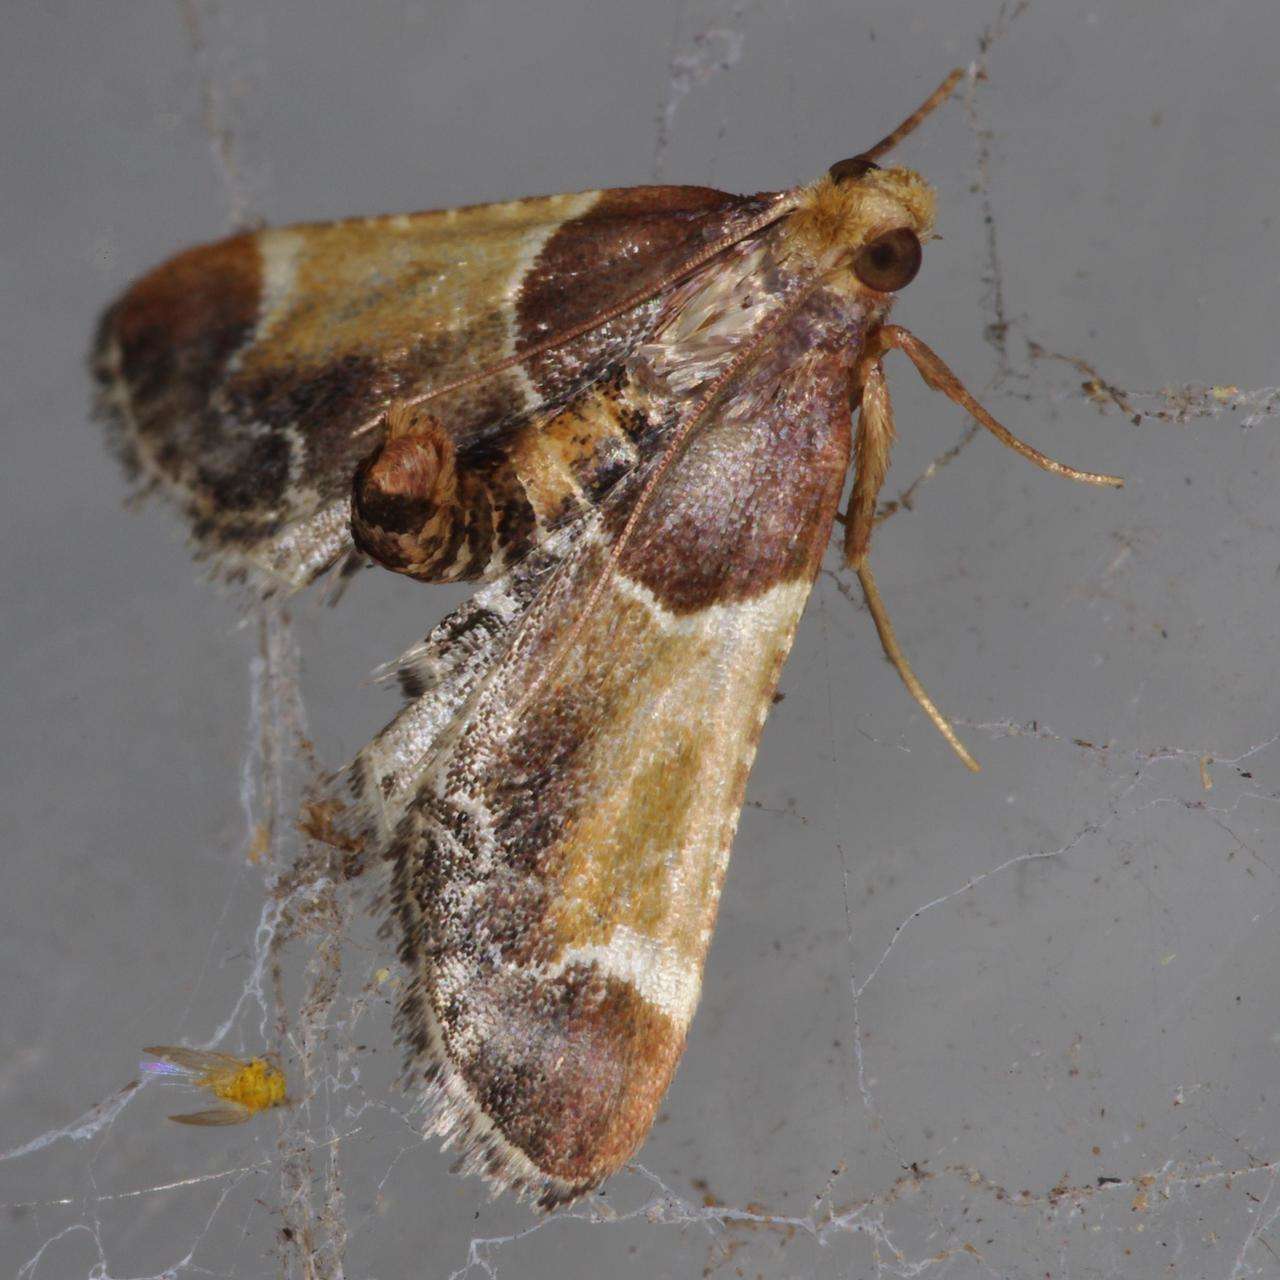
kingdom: Animalia
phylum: Arthropoda
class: Insecta
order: Lepidoptera
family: Pyralidae
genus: Pyralis
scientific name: Pyralis farinalis
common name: Meal moth
